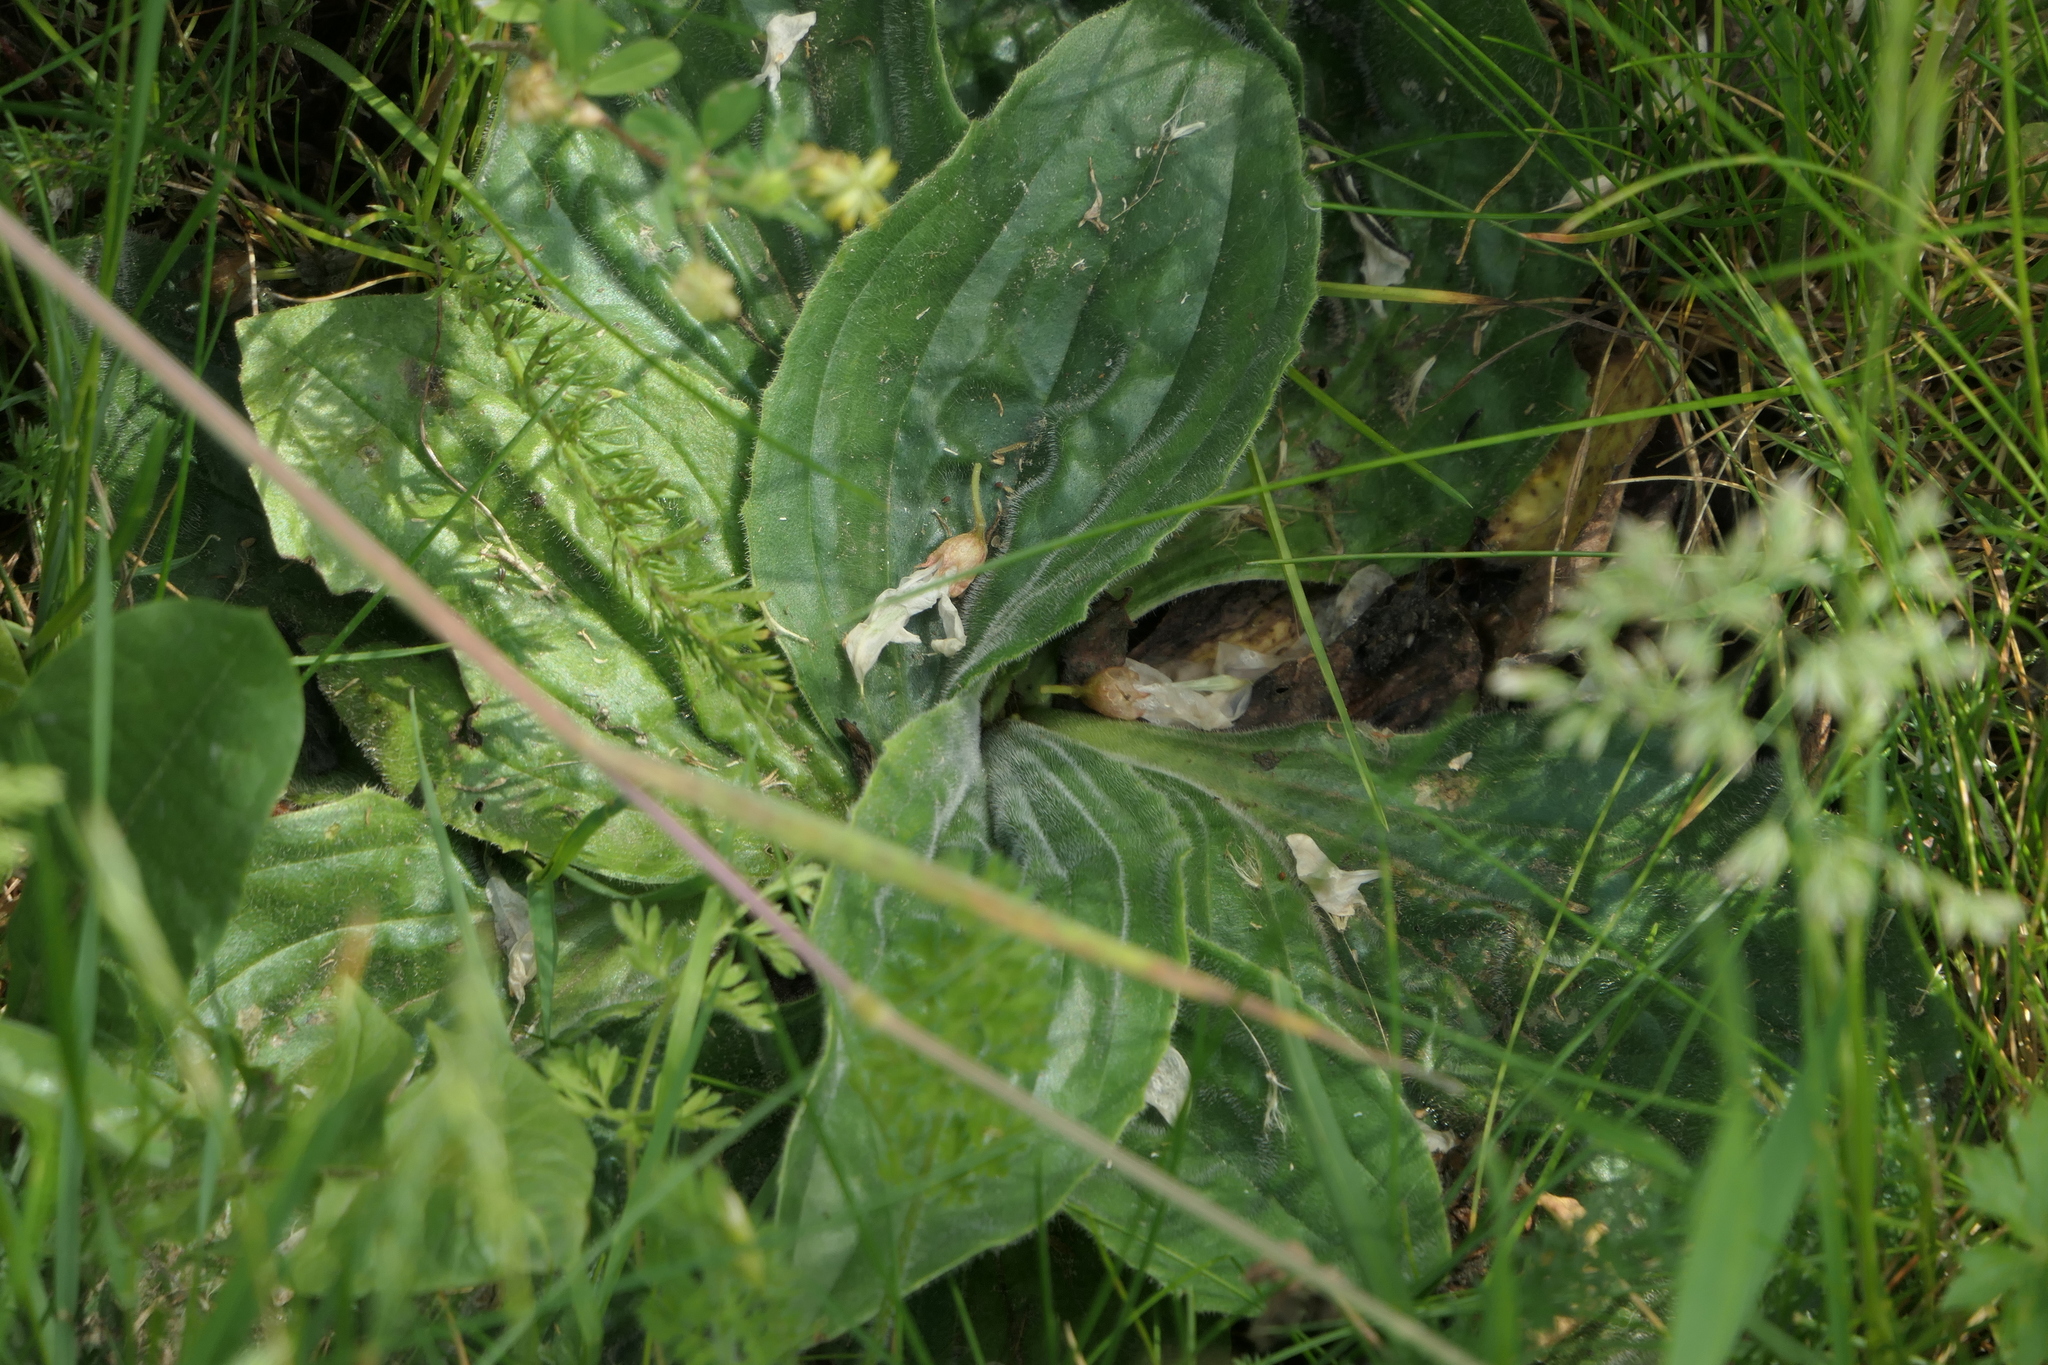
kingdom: Plantae
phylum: Tracheophyta
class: Magnoliopsida
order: Lamiales
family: Plantaginaceae
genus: Plantago
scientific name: Plantago media
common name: Hoary plantain
